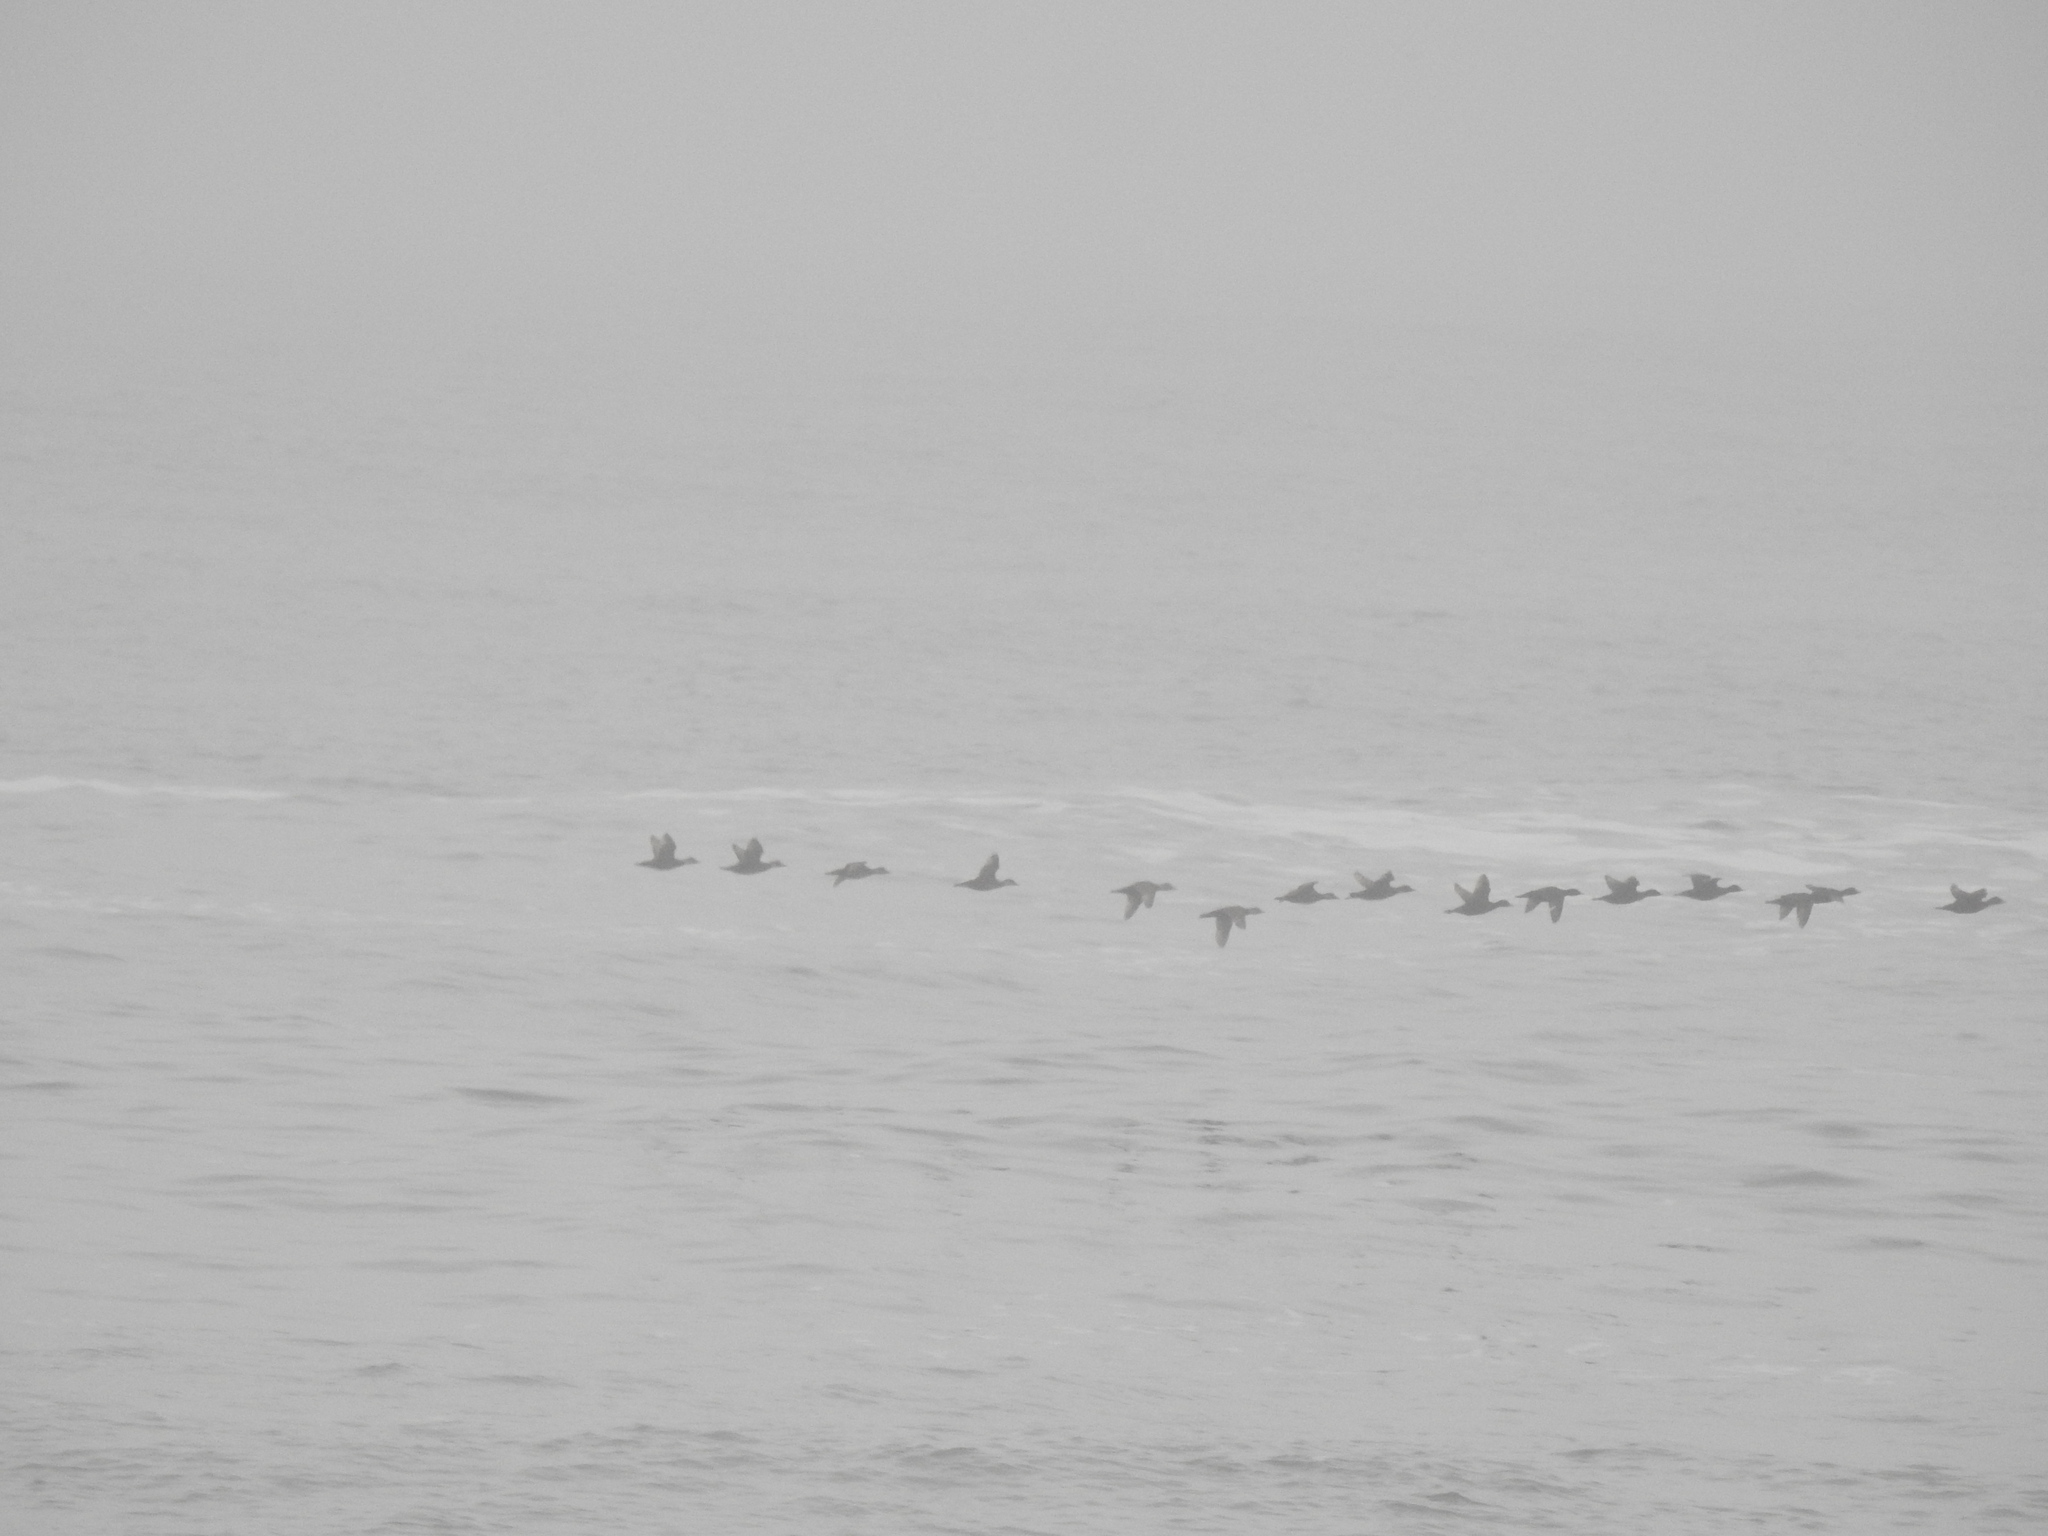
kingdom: Animalia
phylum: Chordata
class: Aves
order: Anseriformes
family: Anatidae
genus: Melanitta
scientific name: Melanitta nigra
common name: Common scoter
